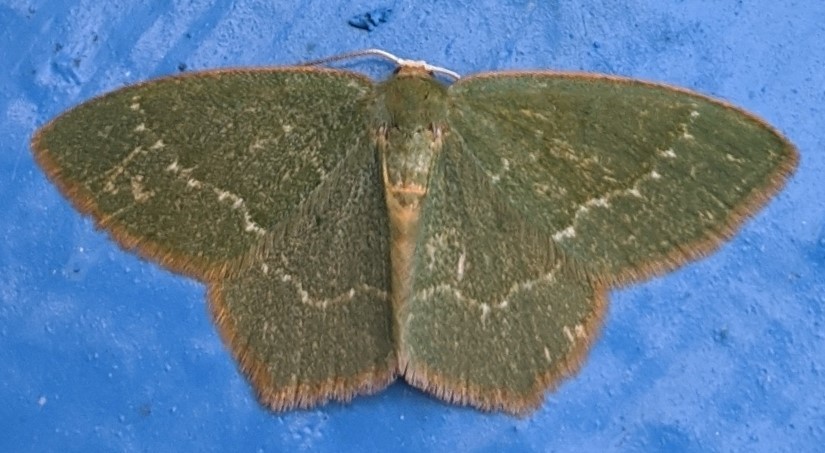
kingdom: Animalia
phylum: Arthropoda
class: Insecta
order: Lepidoptera
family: Geometridae
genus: Thalera
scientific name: Thalera pistasciaria
